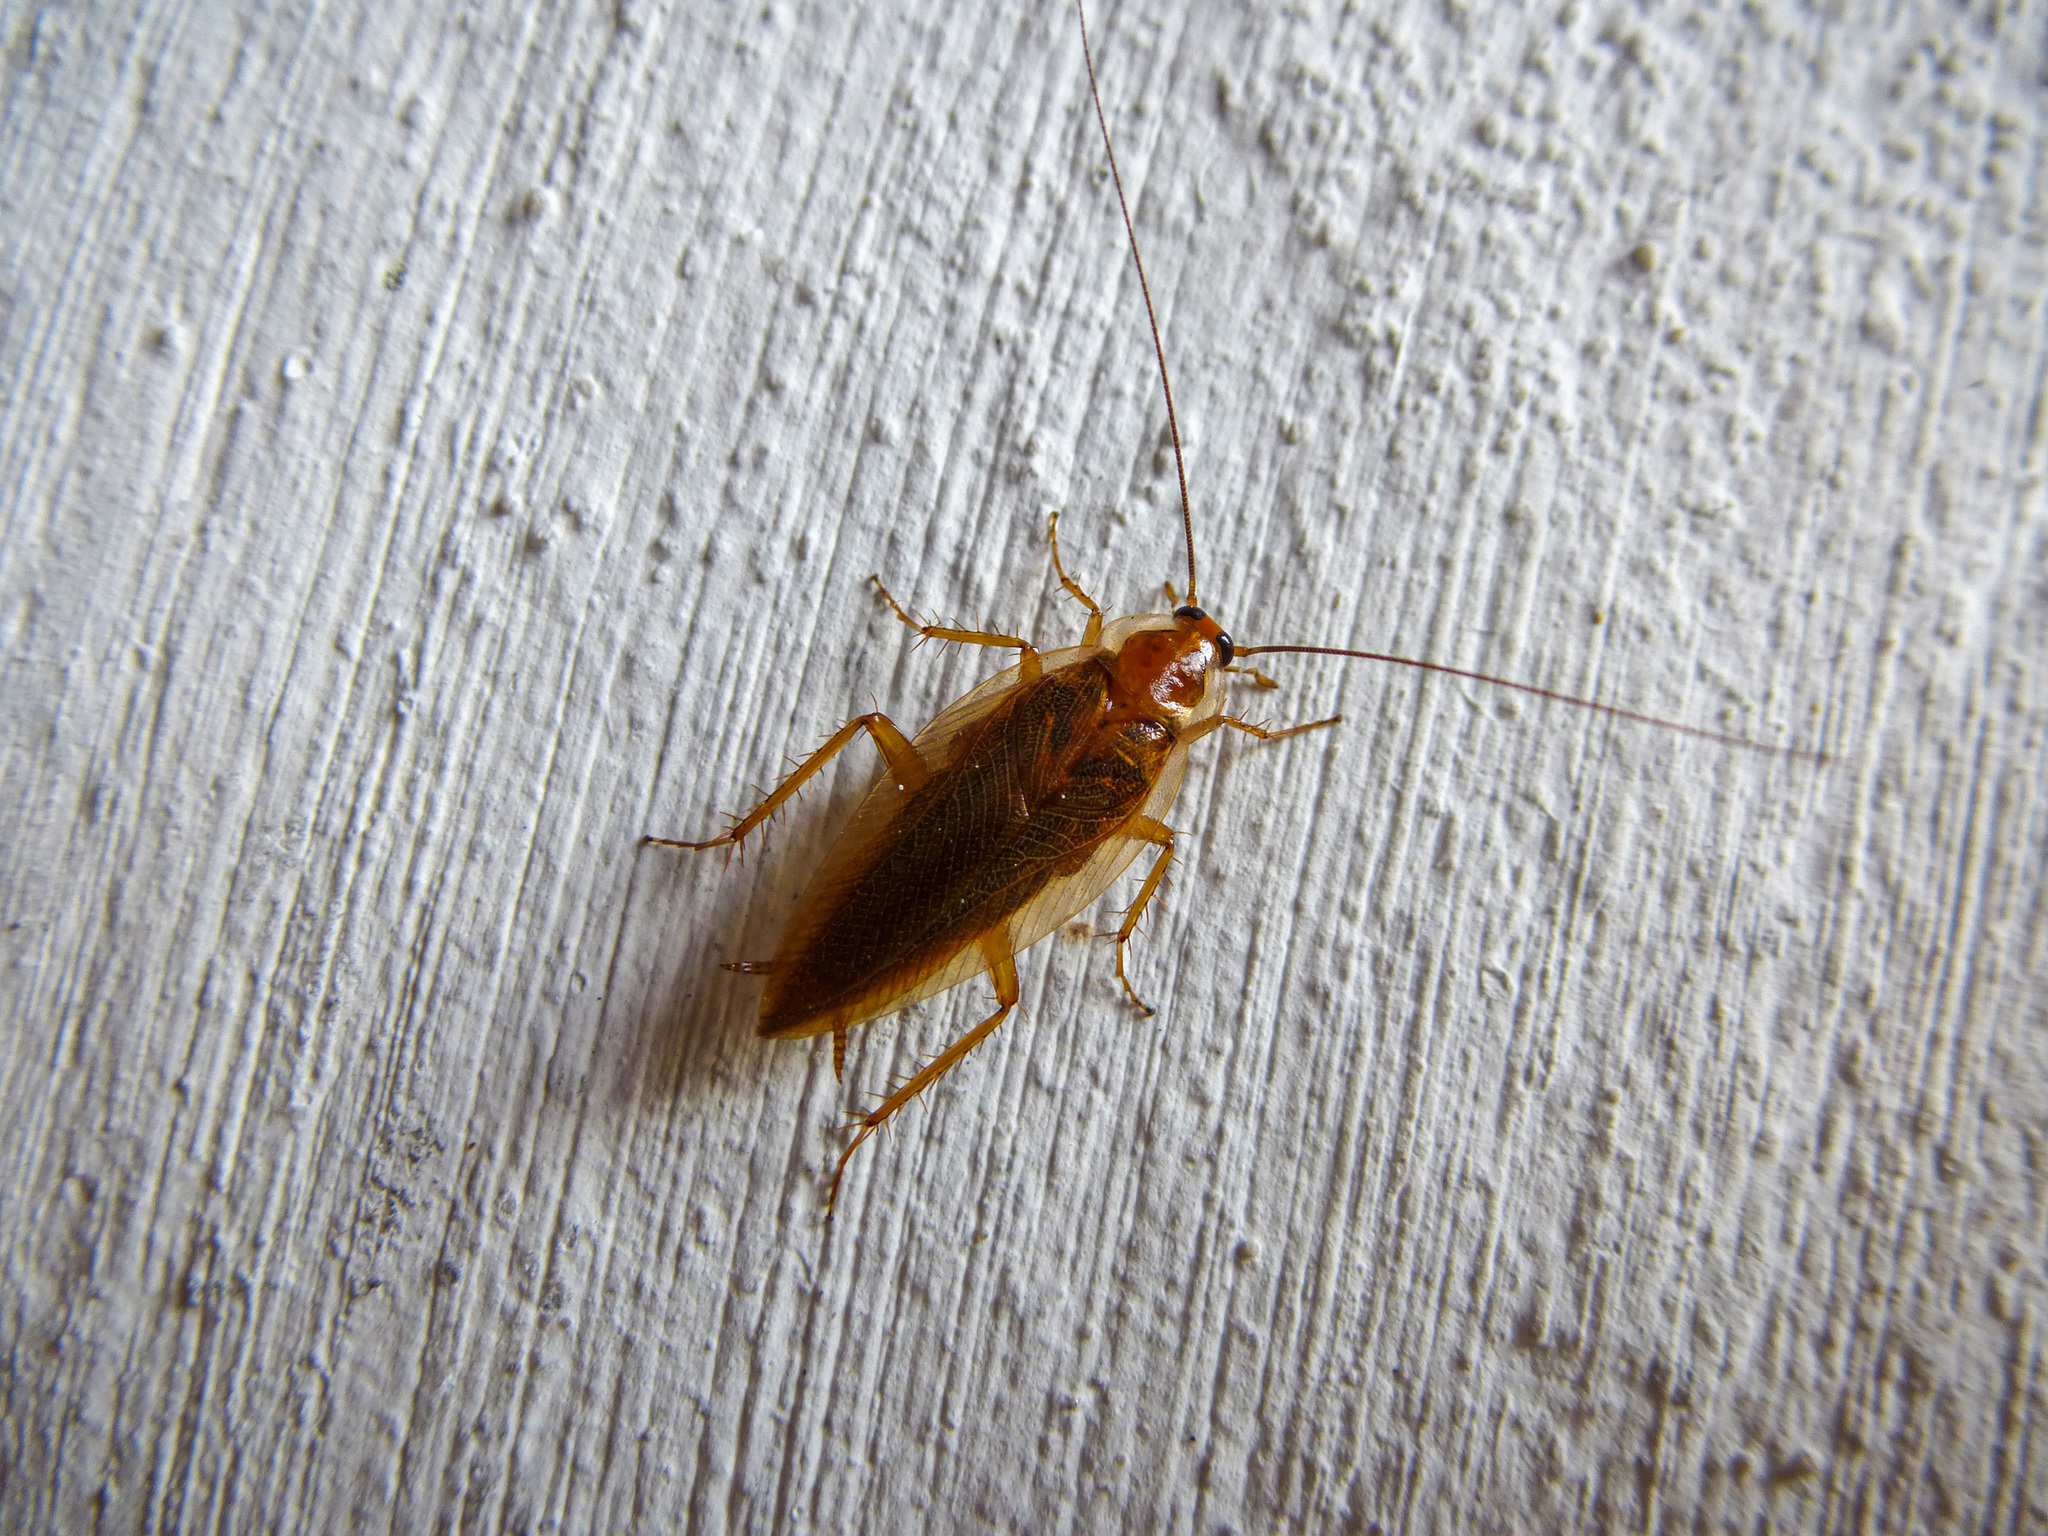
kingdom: Animalia
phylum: Arthropoda
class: Insecta
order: Blattodea
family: Ectobiidae
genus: Ectobius
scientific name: Ectobius vittiventris
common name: Garden cockroach
